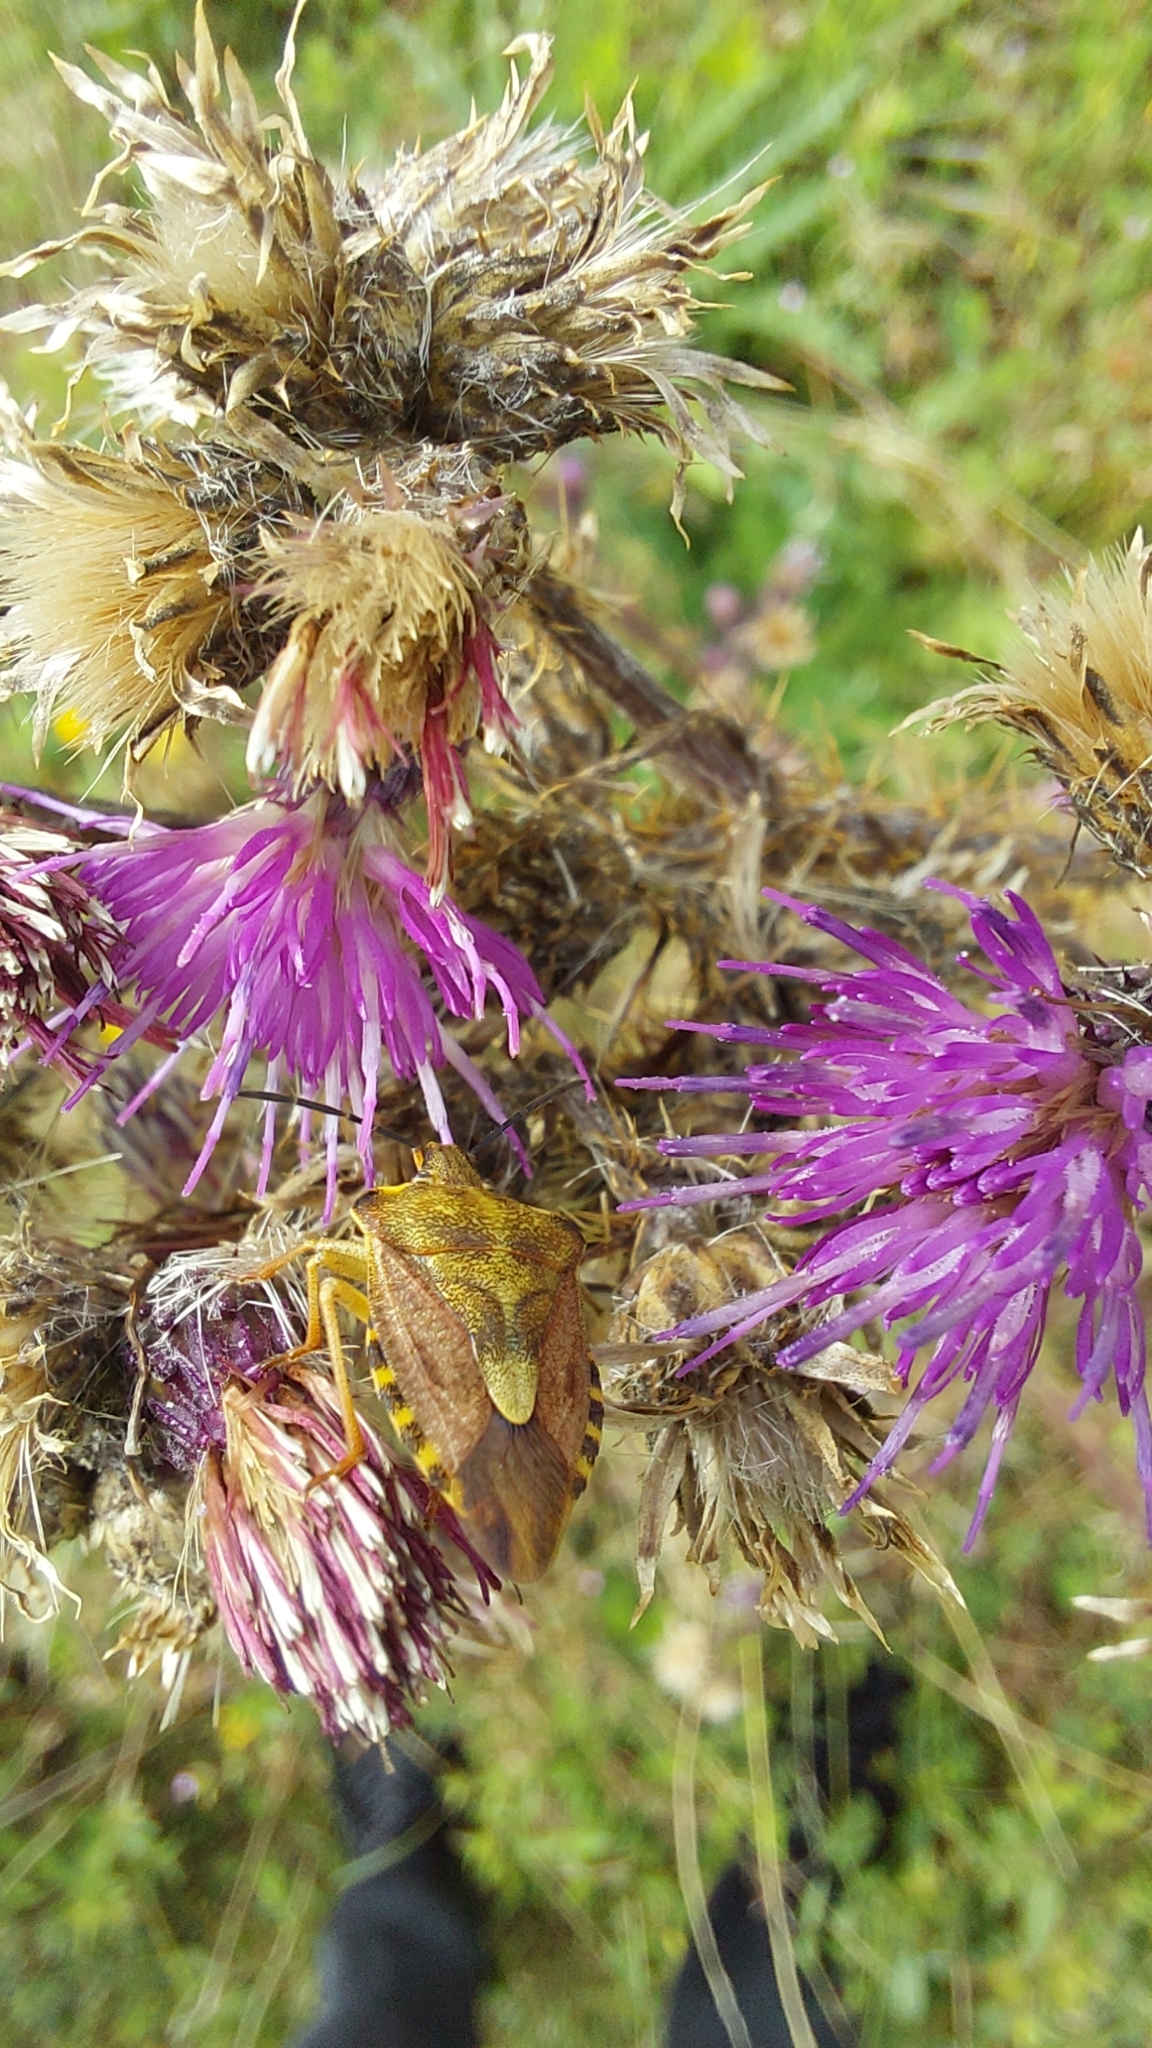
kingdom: Animalia
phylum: Arthropoda
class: Insecta
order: Hemiptera
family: Pentatomidae
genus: Carpocoris
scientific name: Carpocoris purpureipennis
